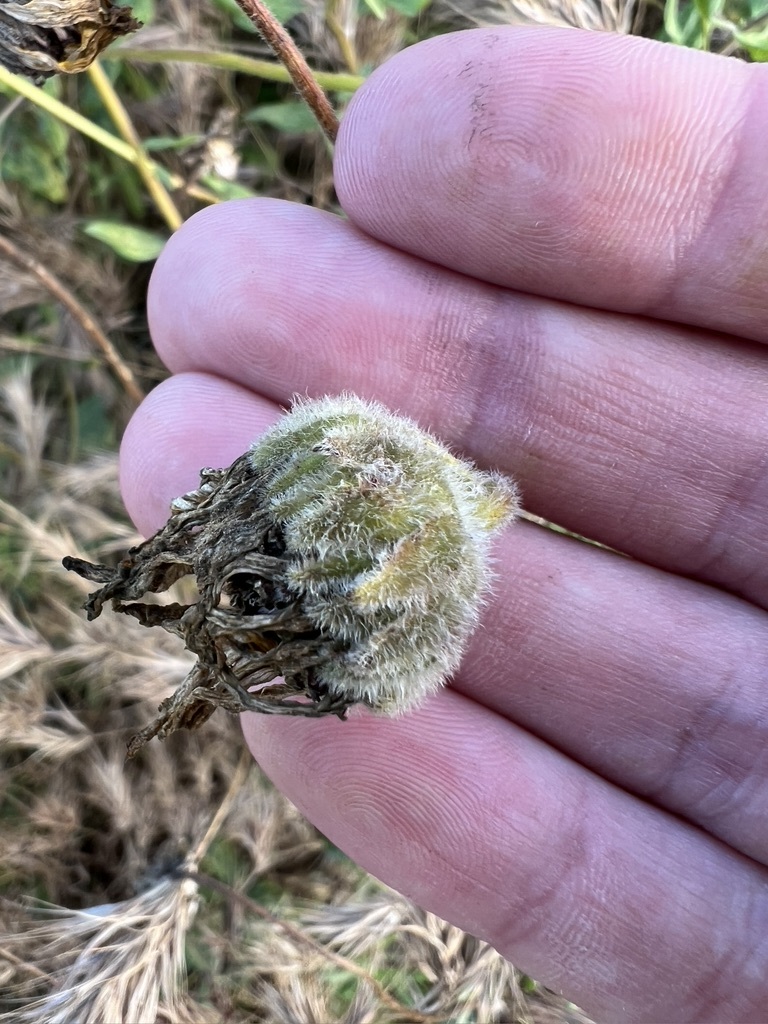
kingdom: Plantae
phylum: Tracheophyta
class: Magnoliopsida
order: Asterales
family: Asteraceae
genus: Encelia
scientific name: Encelia californica
